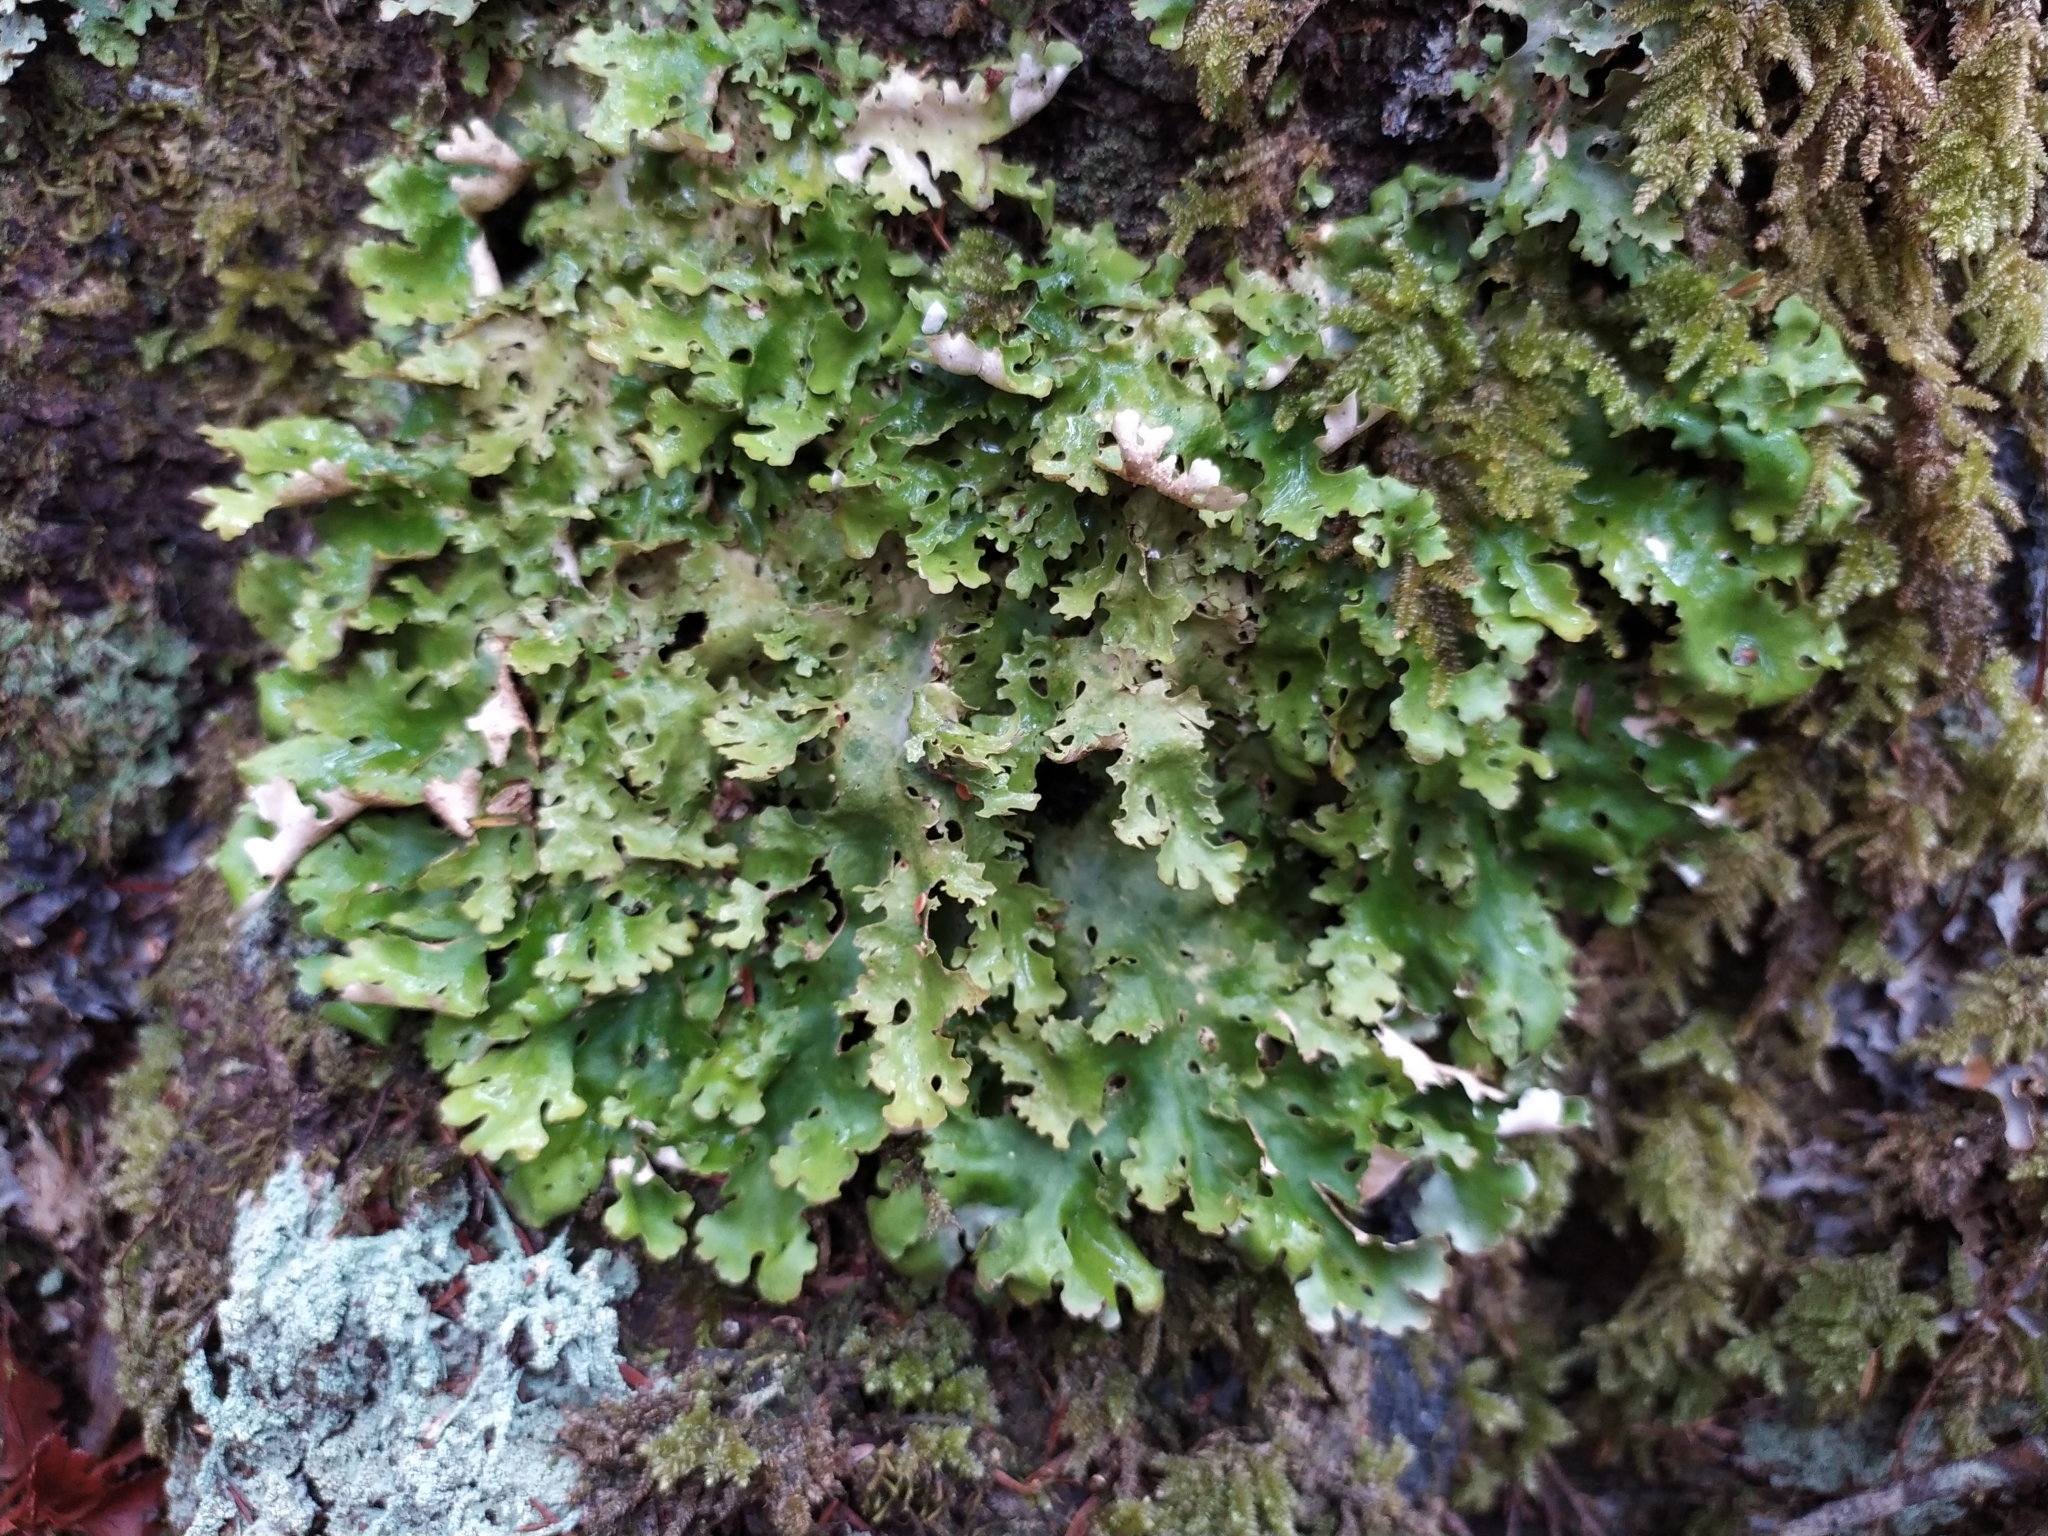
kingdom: Fungi
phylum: Ascomycota
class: Lecanoromycetes
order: Peltigerales
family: Lobariaceae
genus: Sticta
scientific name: Sticta subcaperata
